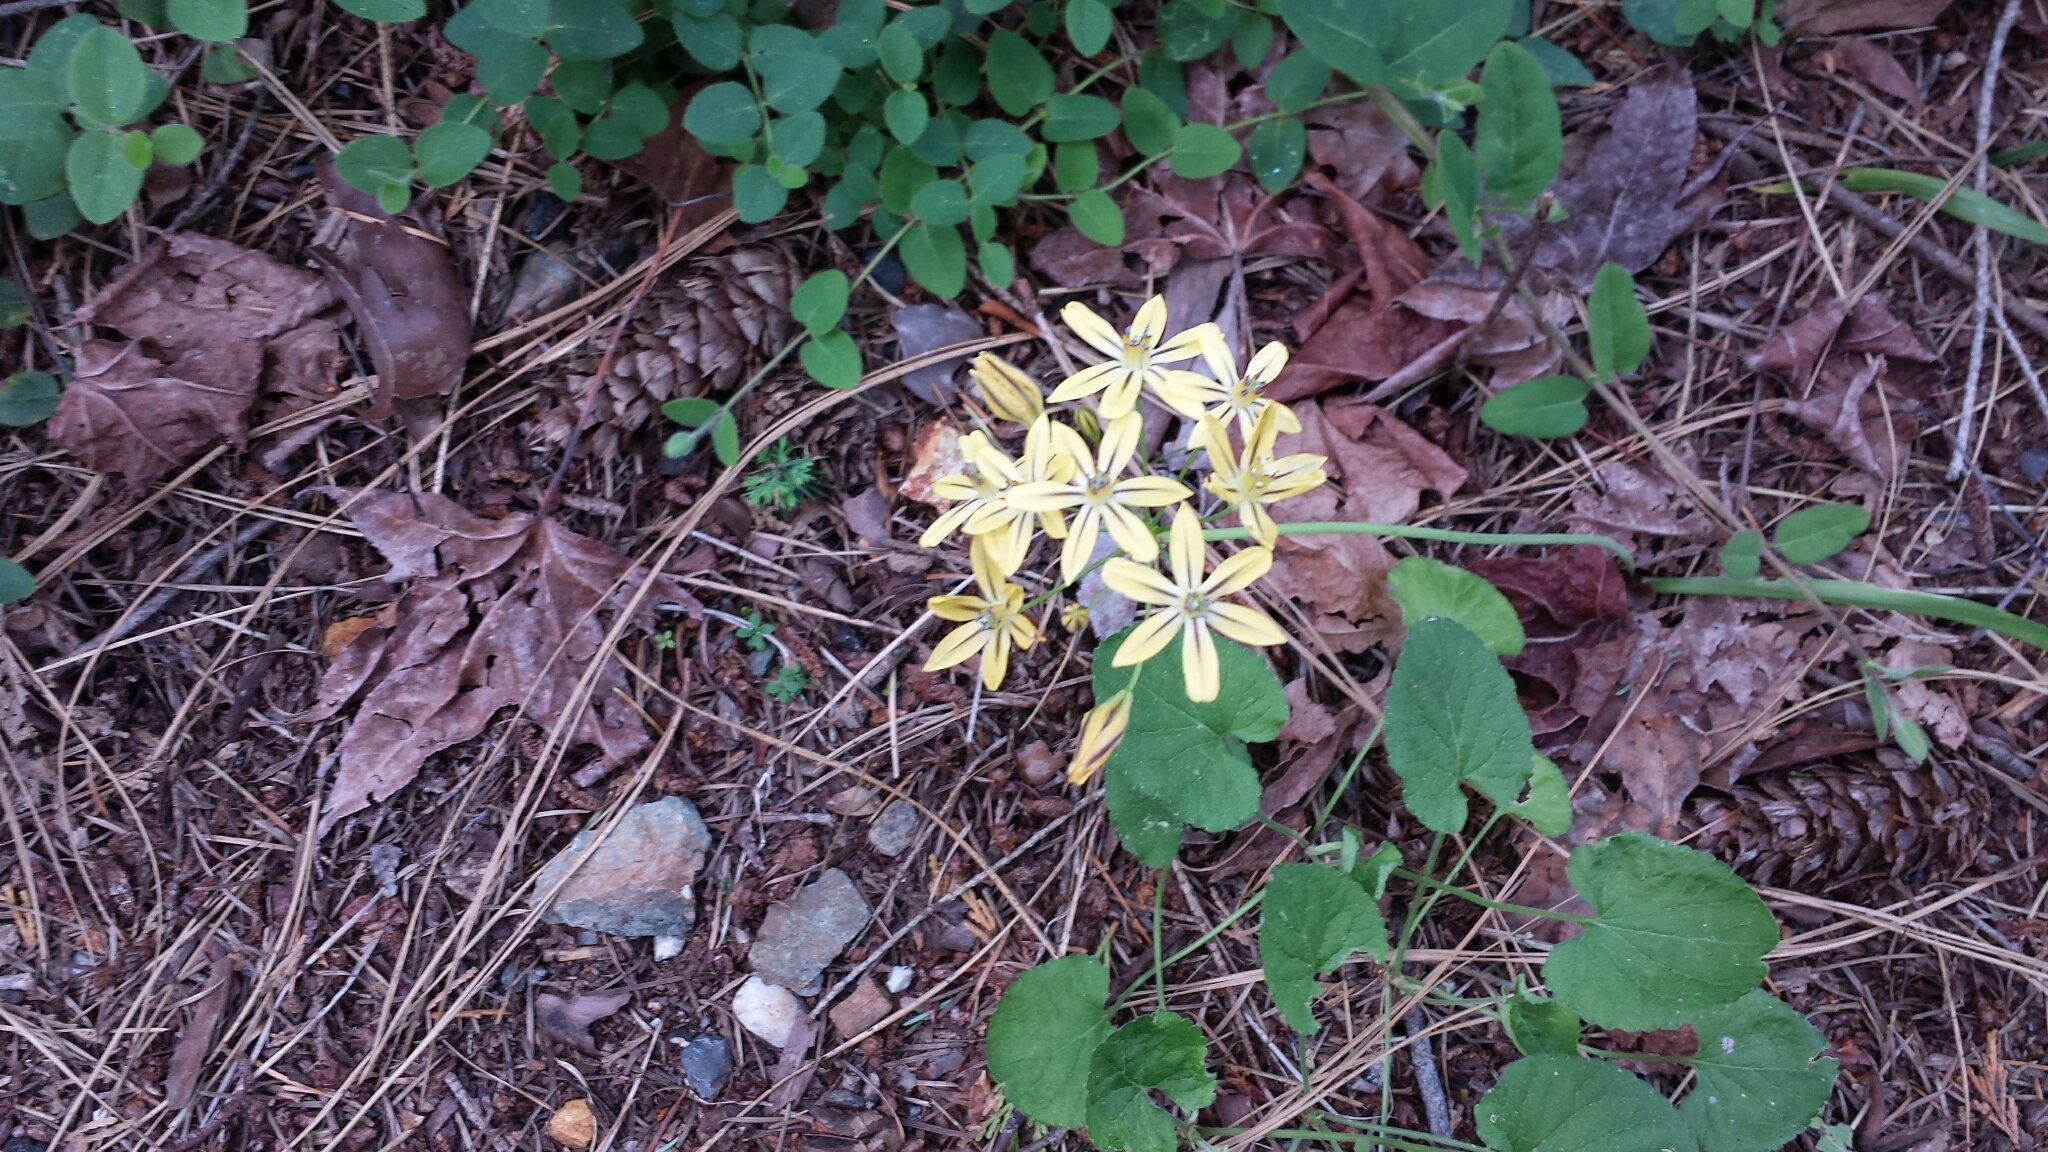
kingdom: Plantae
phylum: Tracheophyta
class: Liliopsida
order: Asparagales
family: Asparagaceae
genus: Triteleia
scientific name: Triteleia ixioides
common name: Yellow-brodiaea
